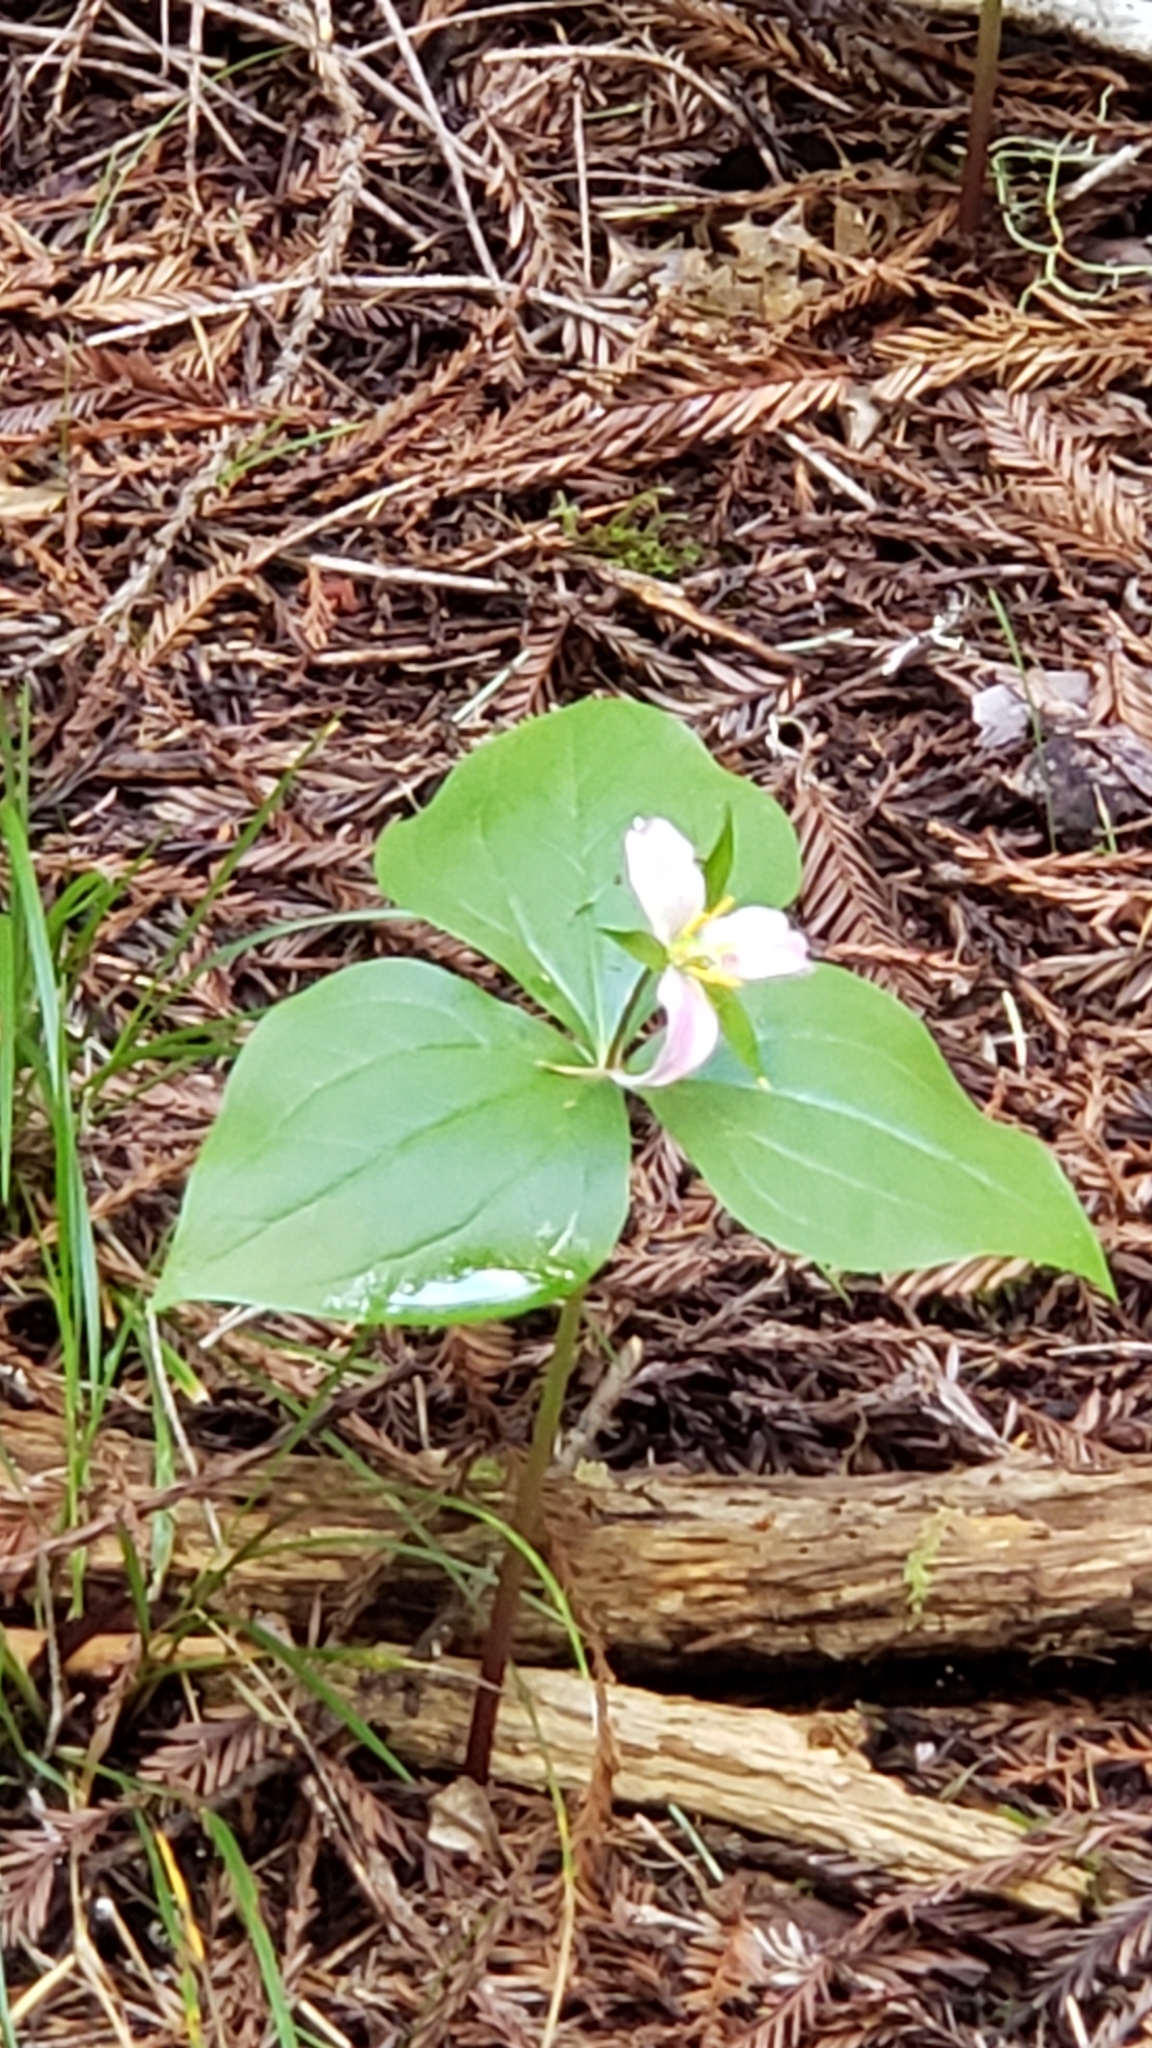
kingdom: Plantae
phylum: Tracheophyta
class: Liliopsida
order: Liliales
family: Melanthiaceae
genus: Trillium
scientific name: Trillium ovatum
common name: Pacific trillium
